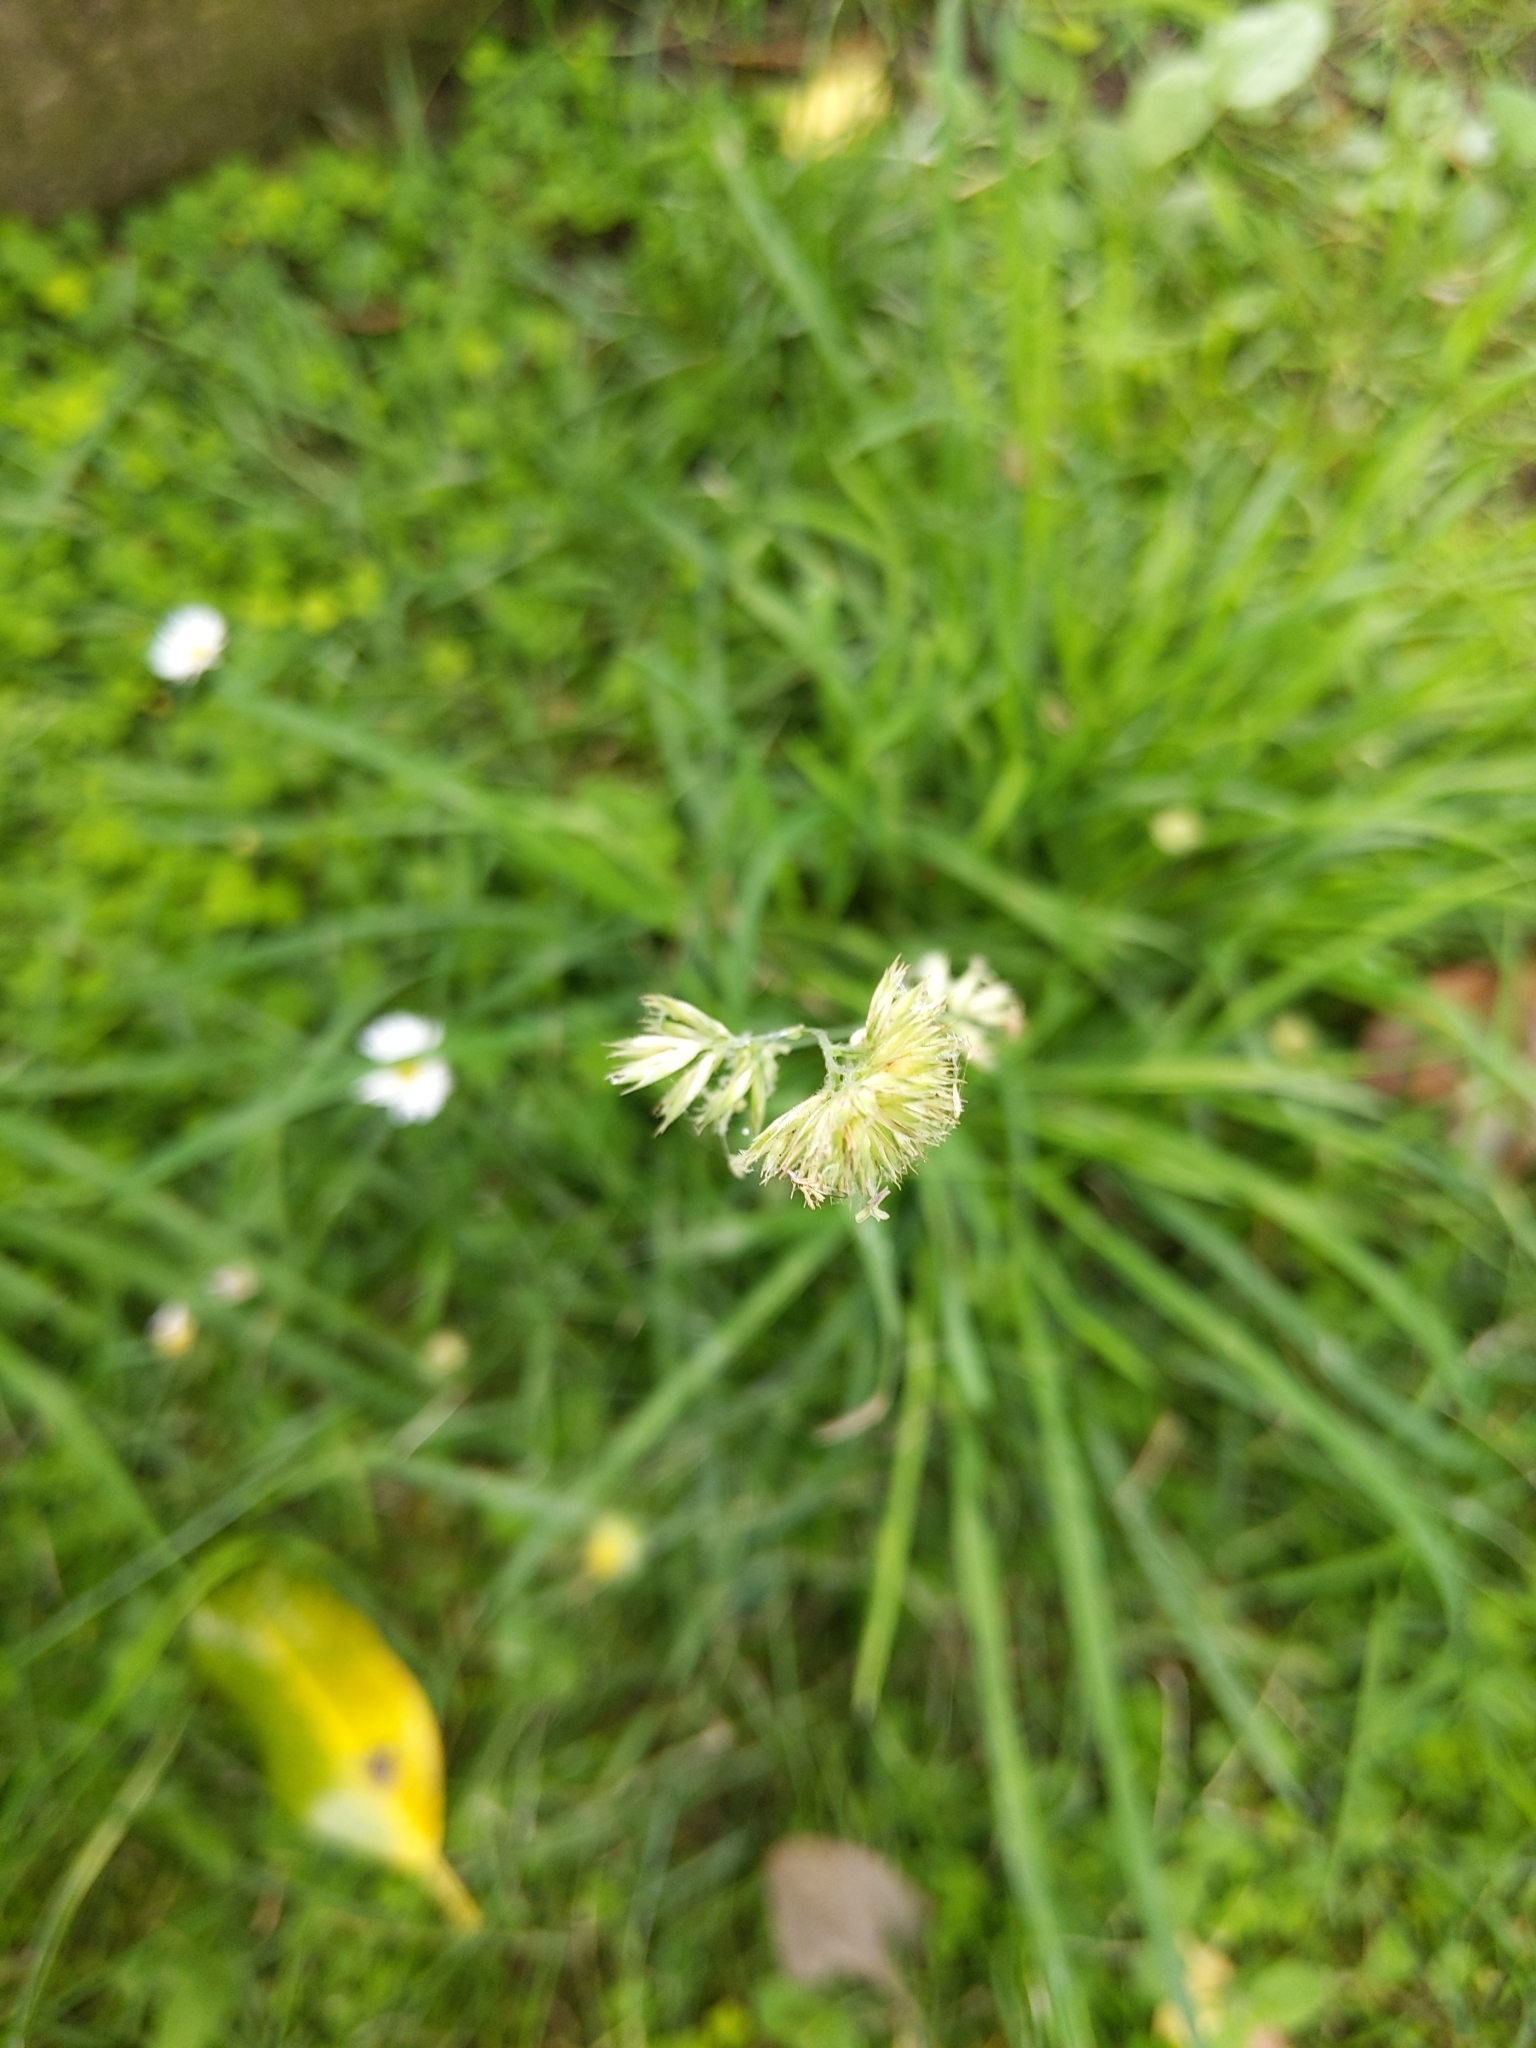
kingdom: Plantae
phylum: Tracheophyta
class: Liliopsida
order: Poales
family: Poaceae
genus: Dactylis
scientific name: Dactylis glomerata
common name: Orchardgrass
